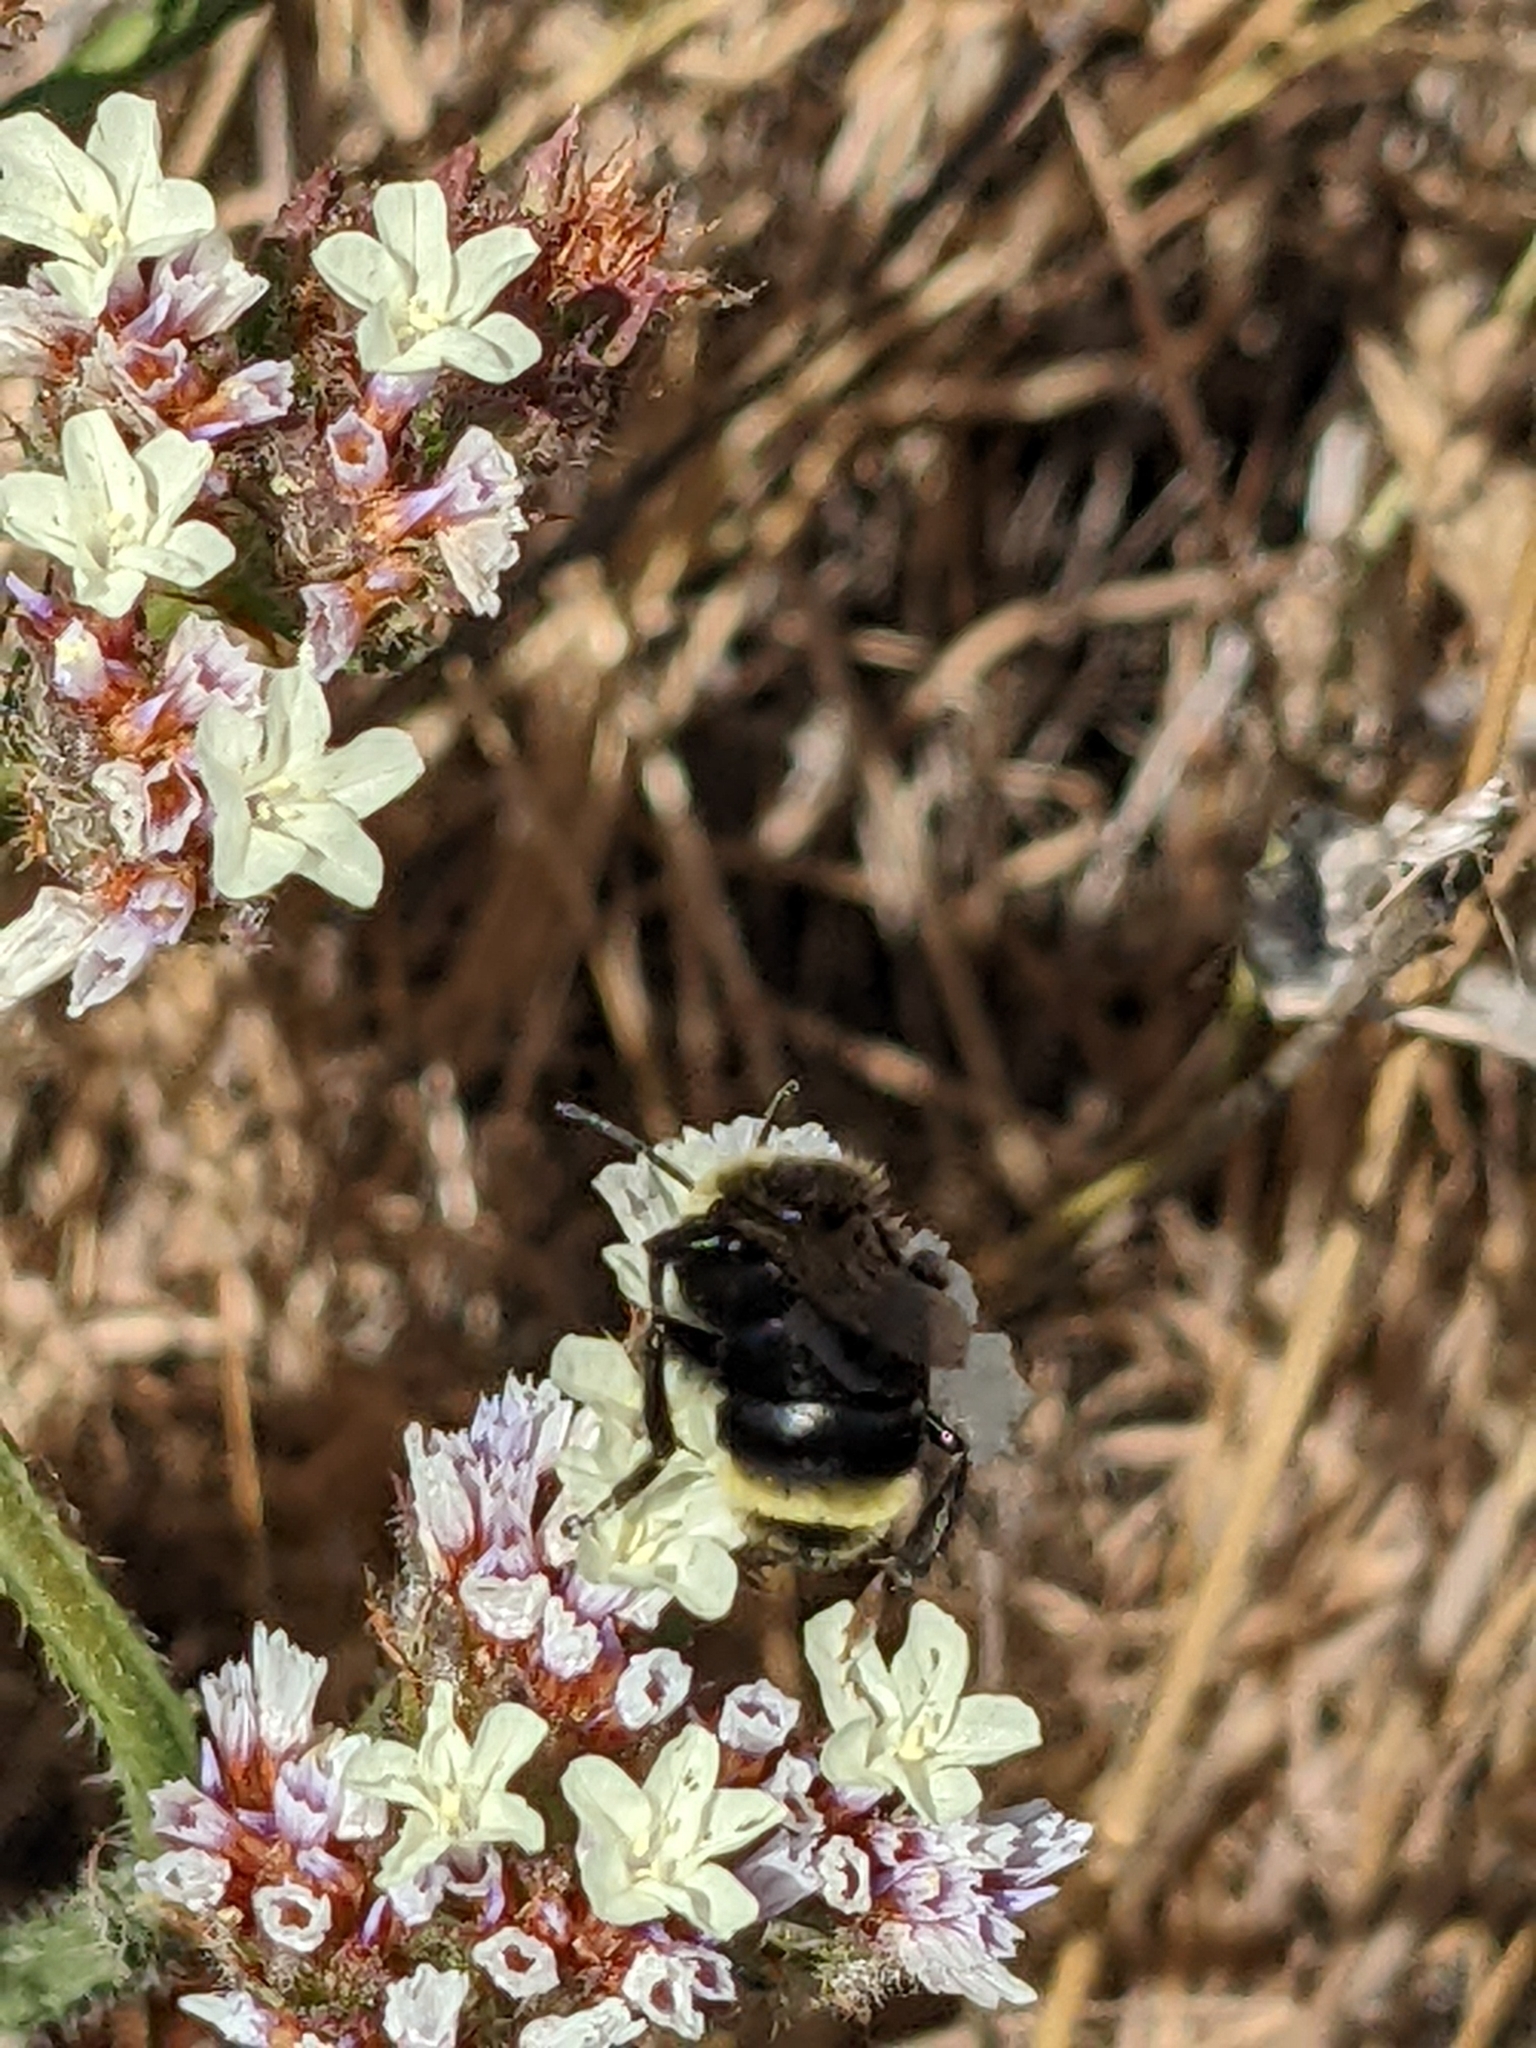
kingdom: Animalia
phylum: Arthropoda
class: Insecta
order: Hymenoptera
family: Apidae
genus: Bombus
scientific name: Bombus vosnesenskii
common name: Vosnesensky bumble bee
